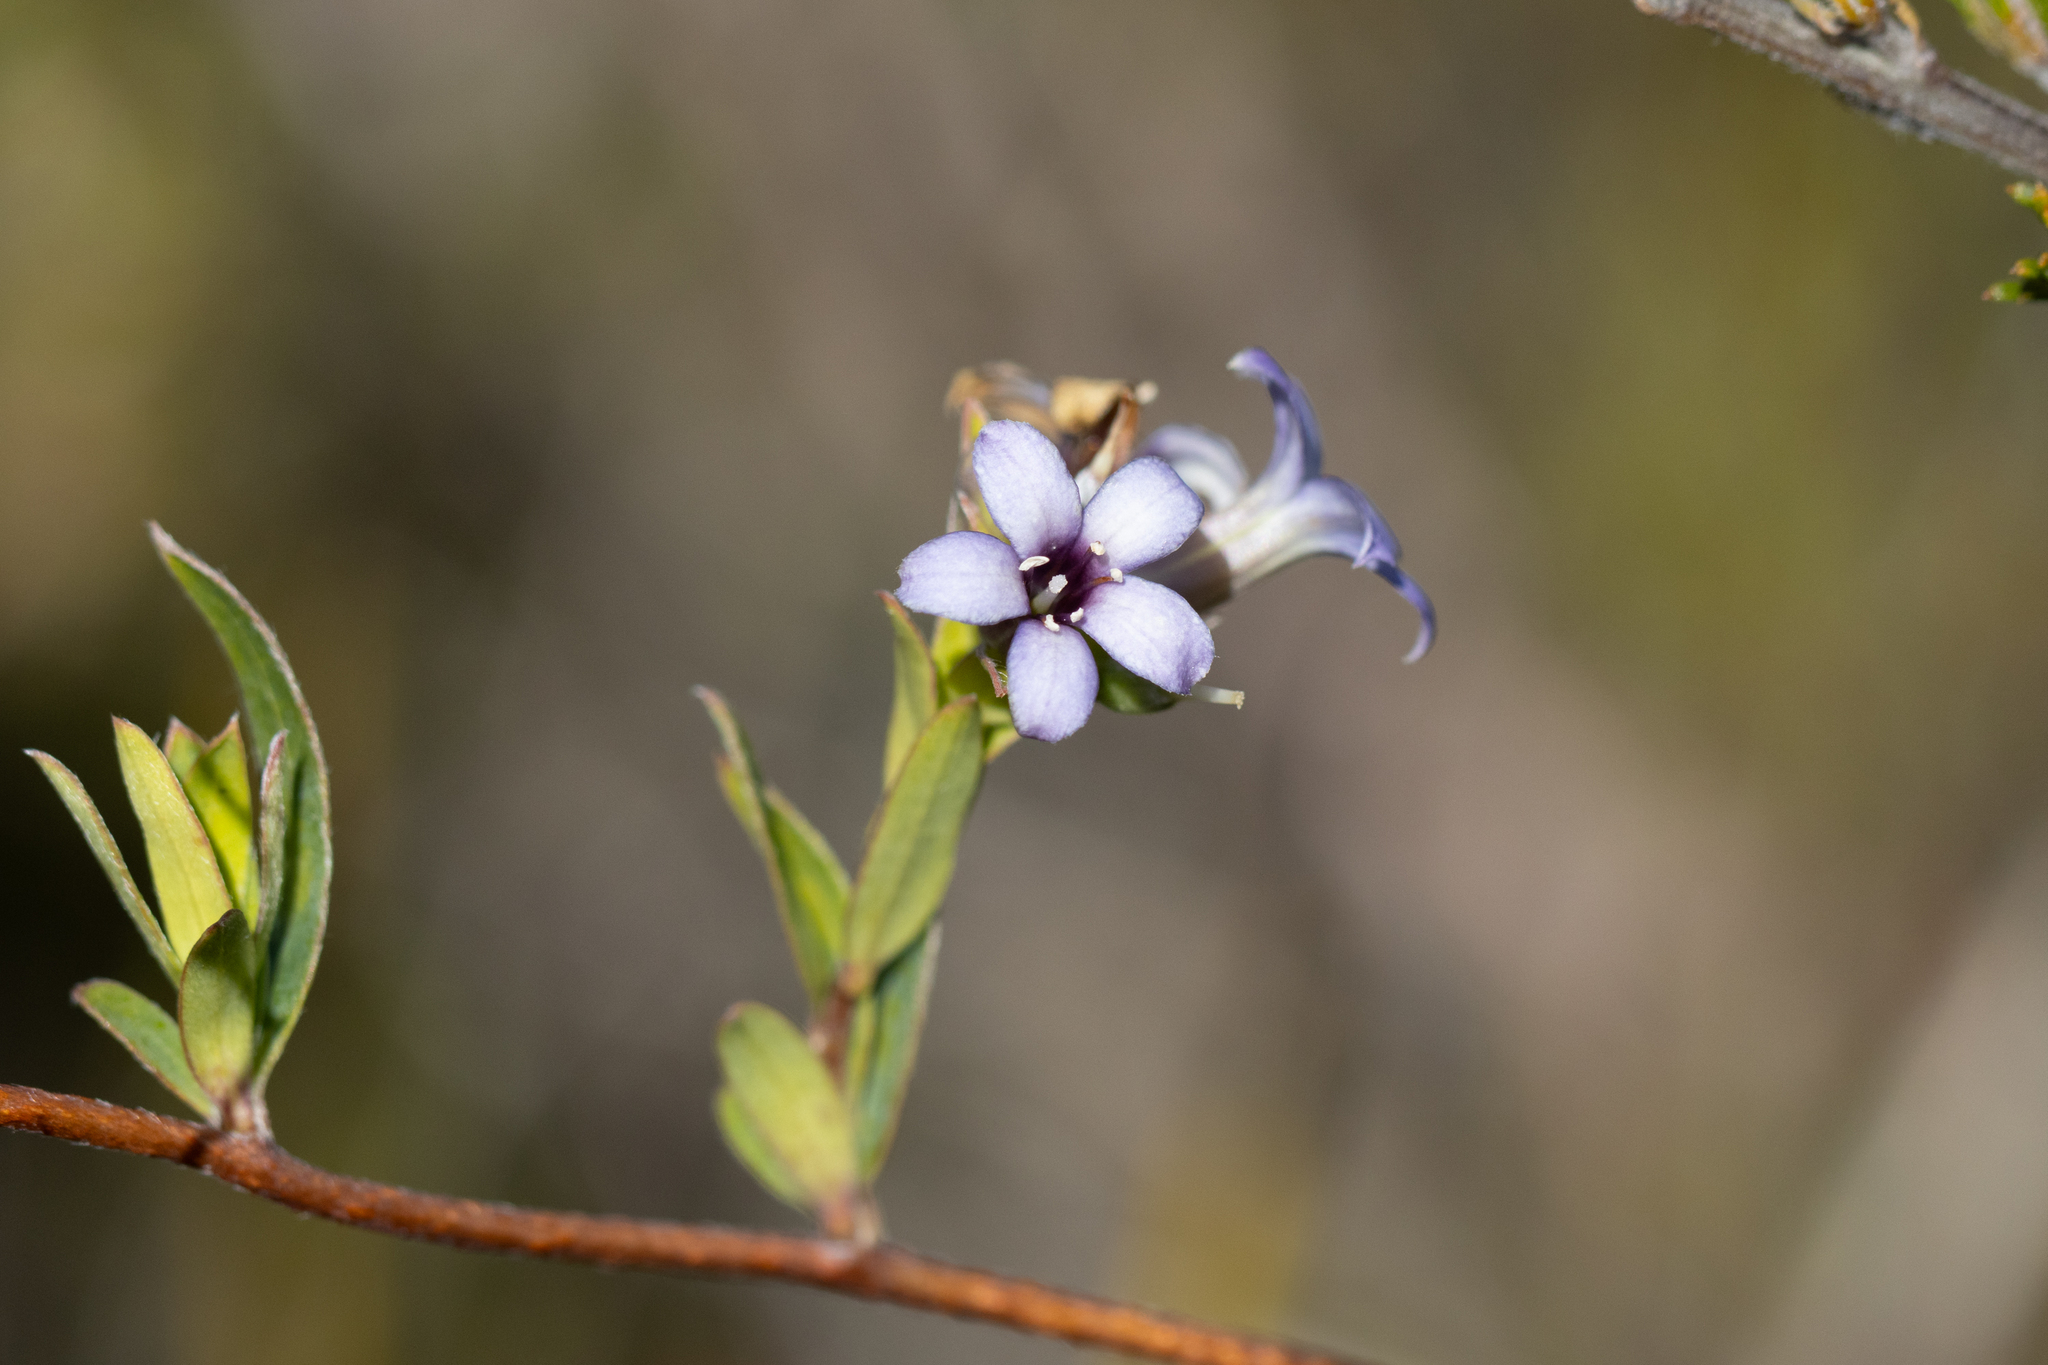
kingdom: Plantae
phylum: Tracheophyta
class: Magnoliopsida
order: Apiales
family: Pittosporaceae
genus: Billardiera
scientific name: Billardiera cymosa
